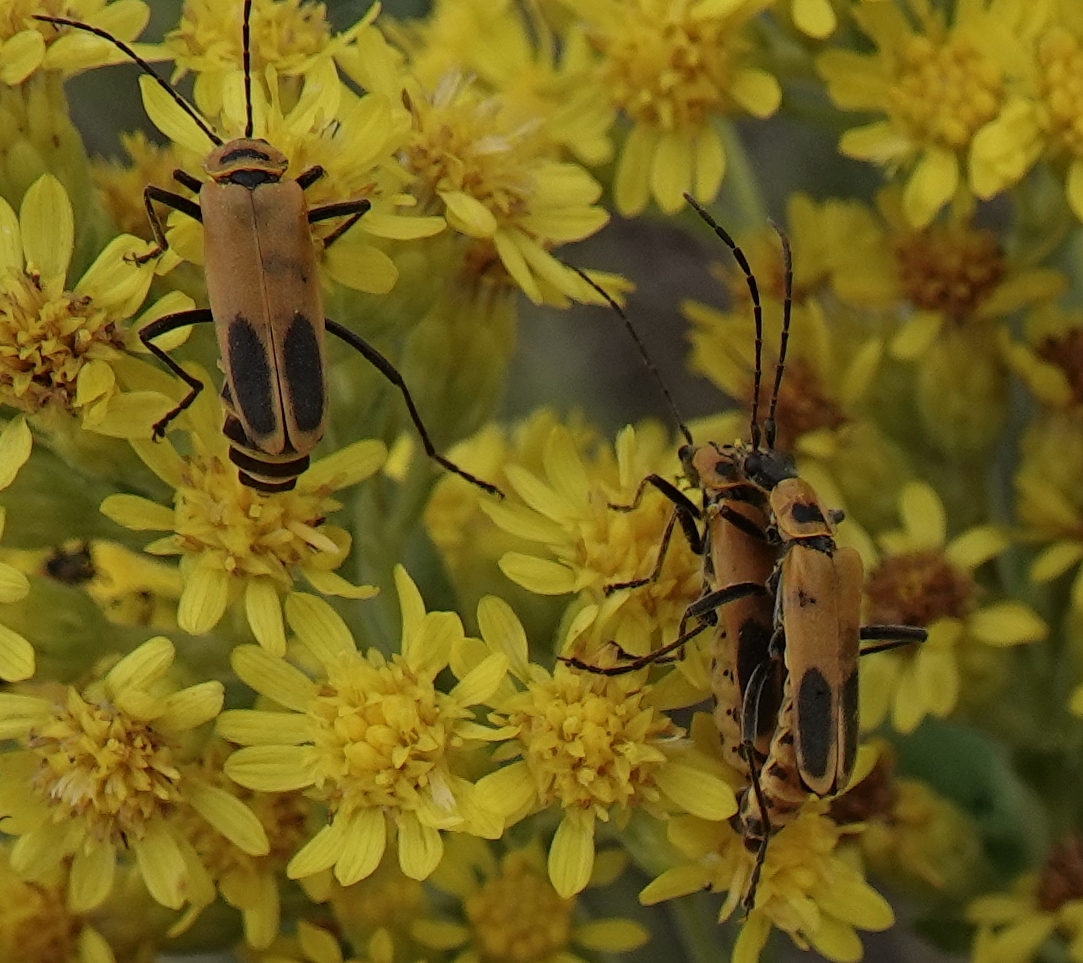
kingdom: Animalia
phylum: Arthropoda
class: Insecta
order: Coleoptera
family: Cantharidae
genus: Chauliognathus
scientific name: Chauliognathus pensylvanicus
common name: Goldenrod soldier beetle
